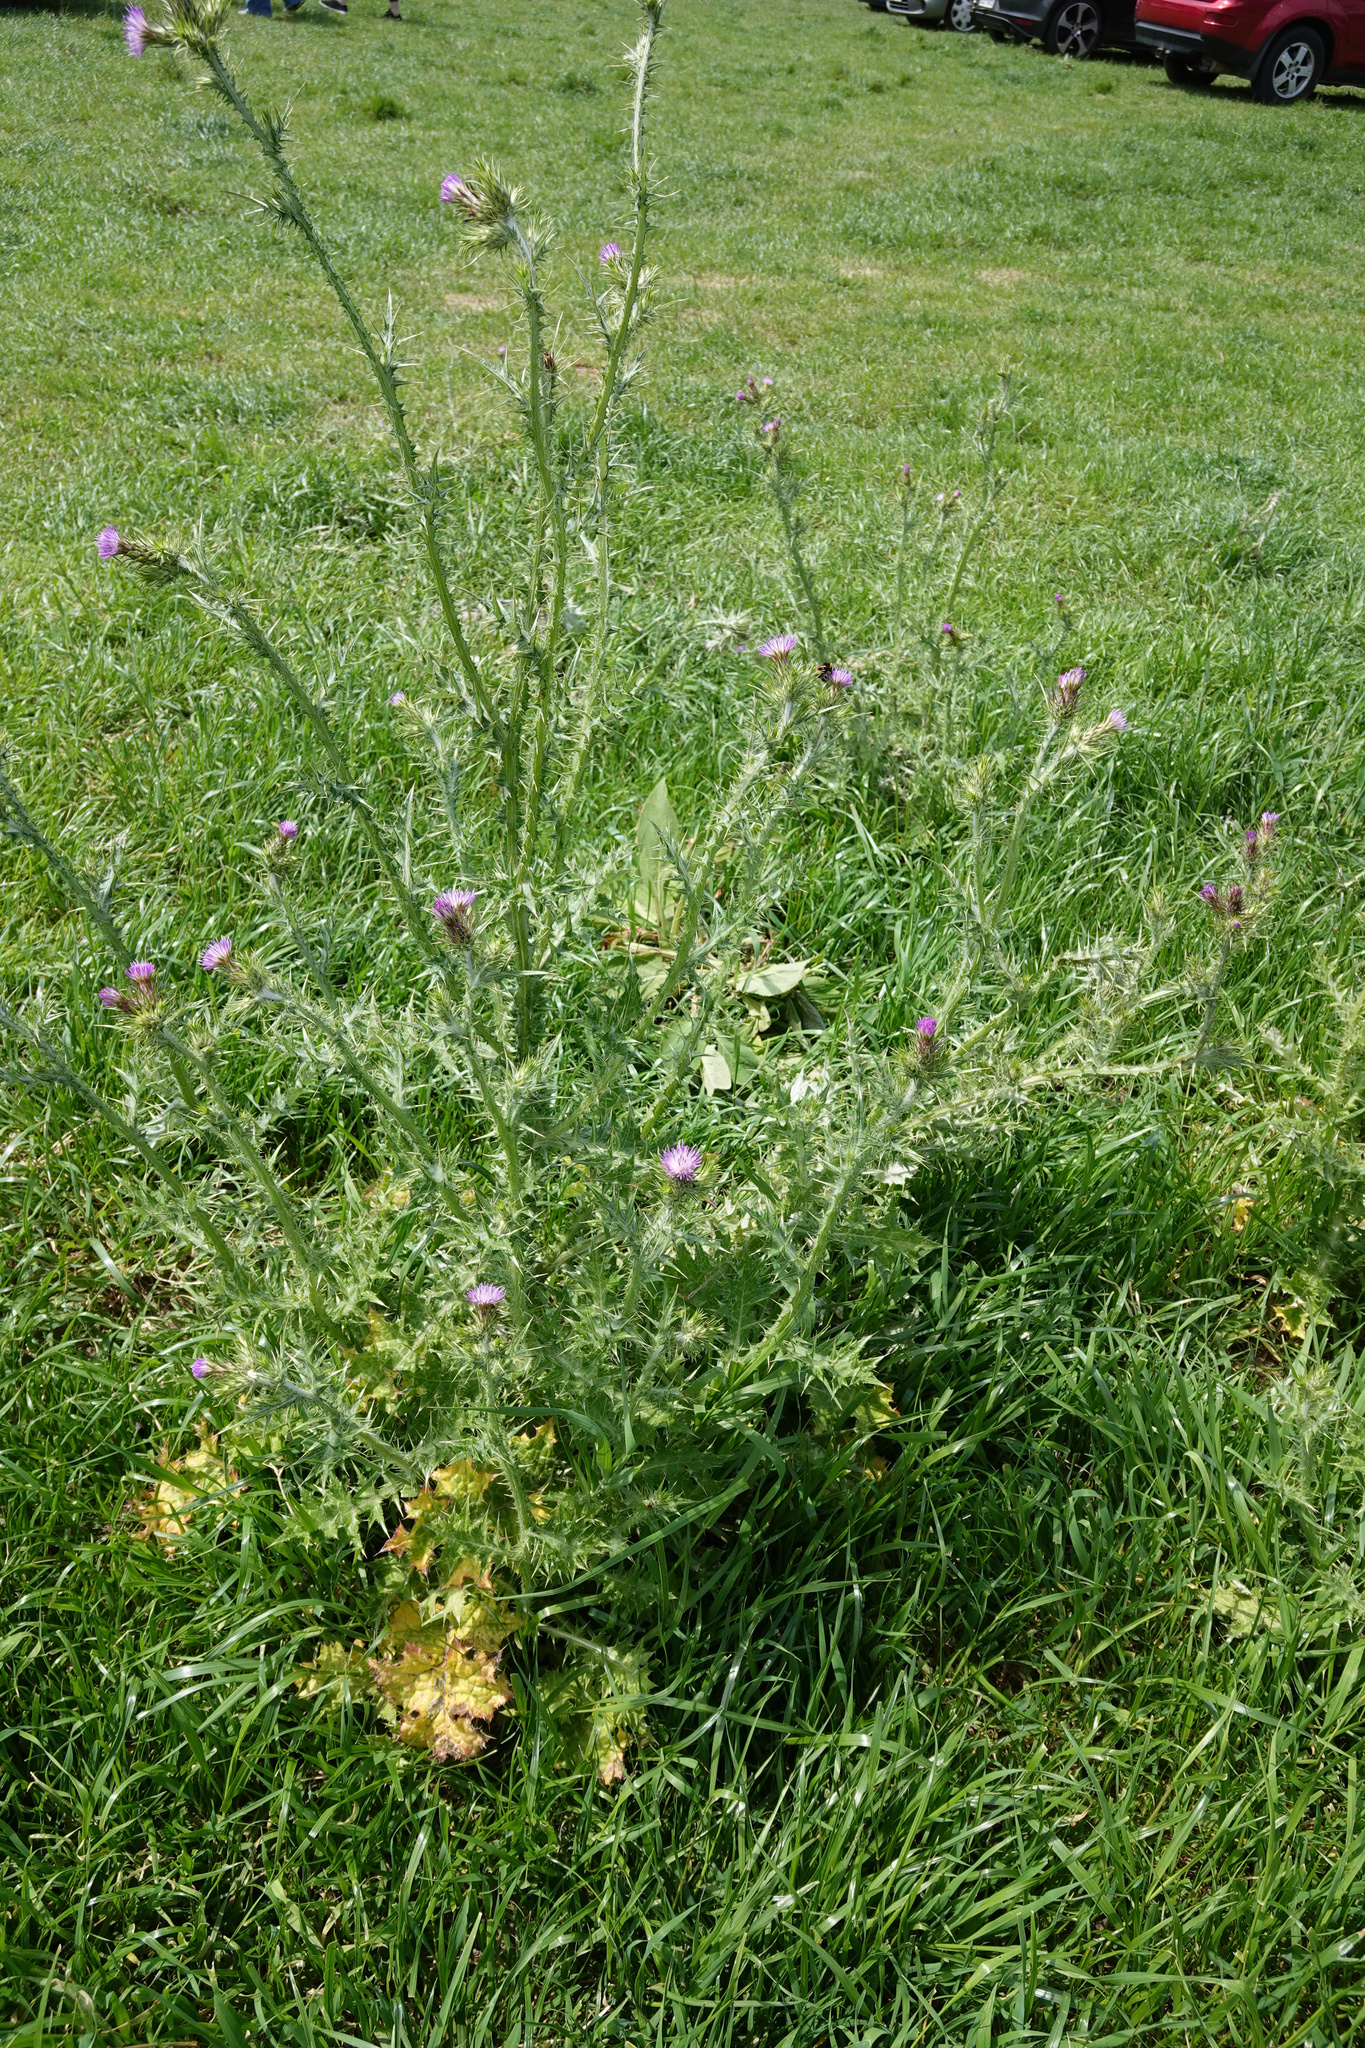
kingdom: Plantae
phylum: Tracheophyta
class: Magnoliopsida
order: Asterales
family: Asteraceae
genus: Carduus
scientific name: Carduus tenuiflorus
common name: Slender thistle
